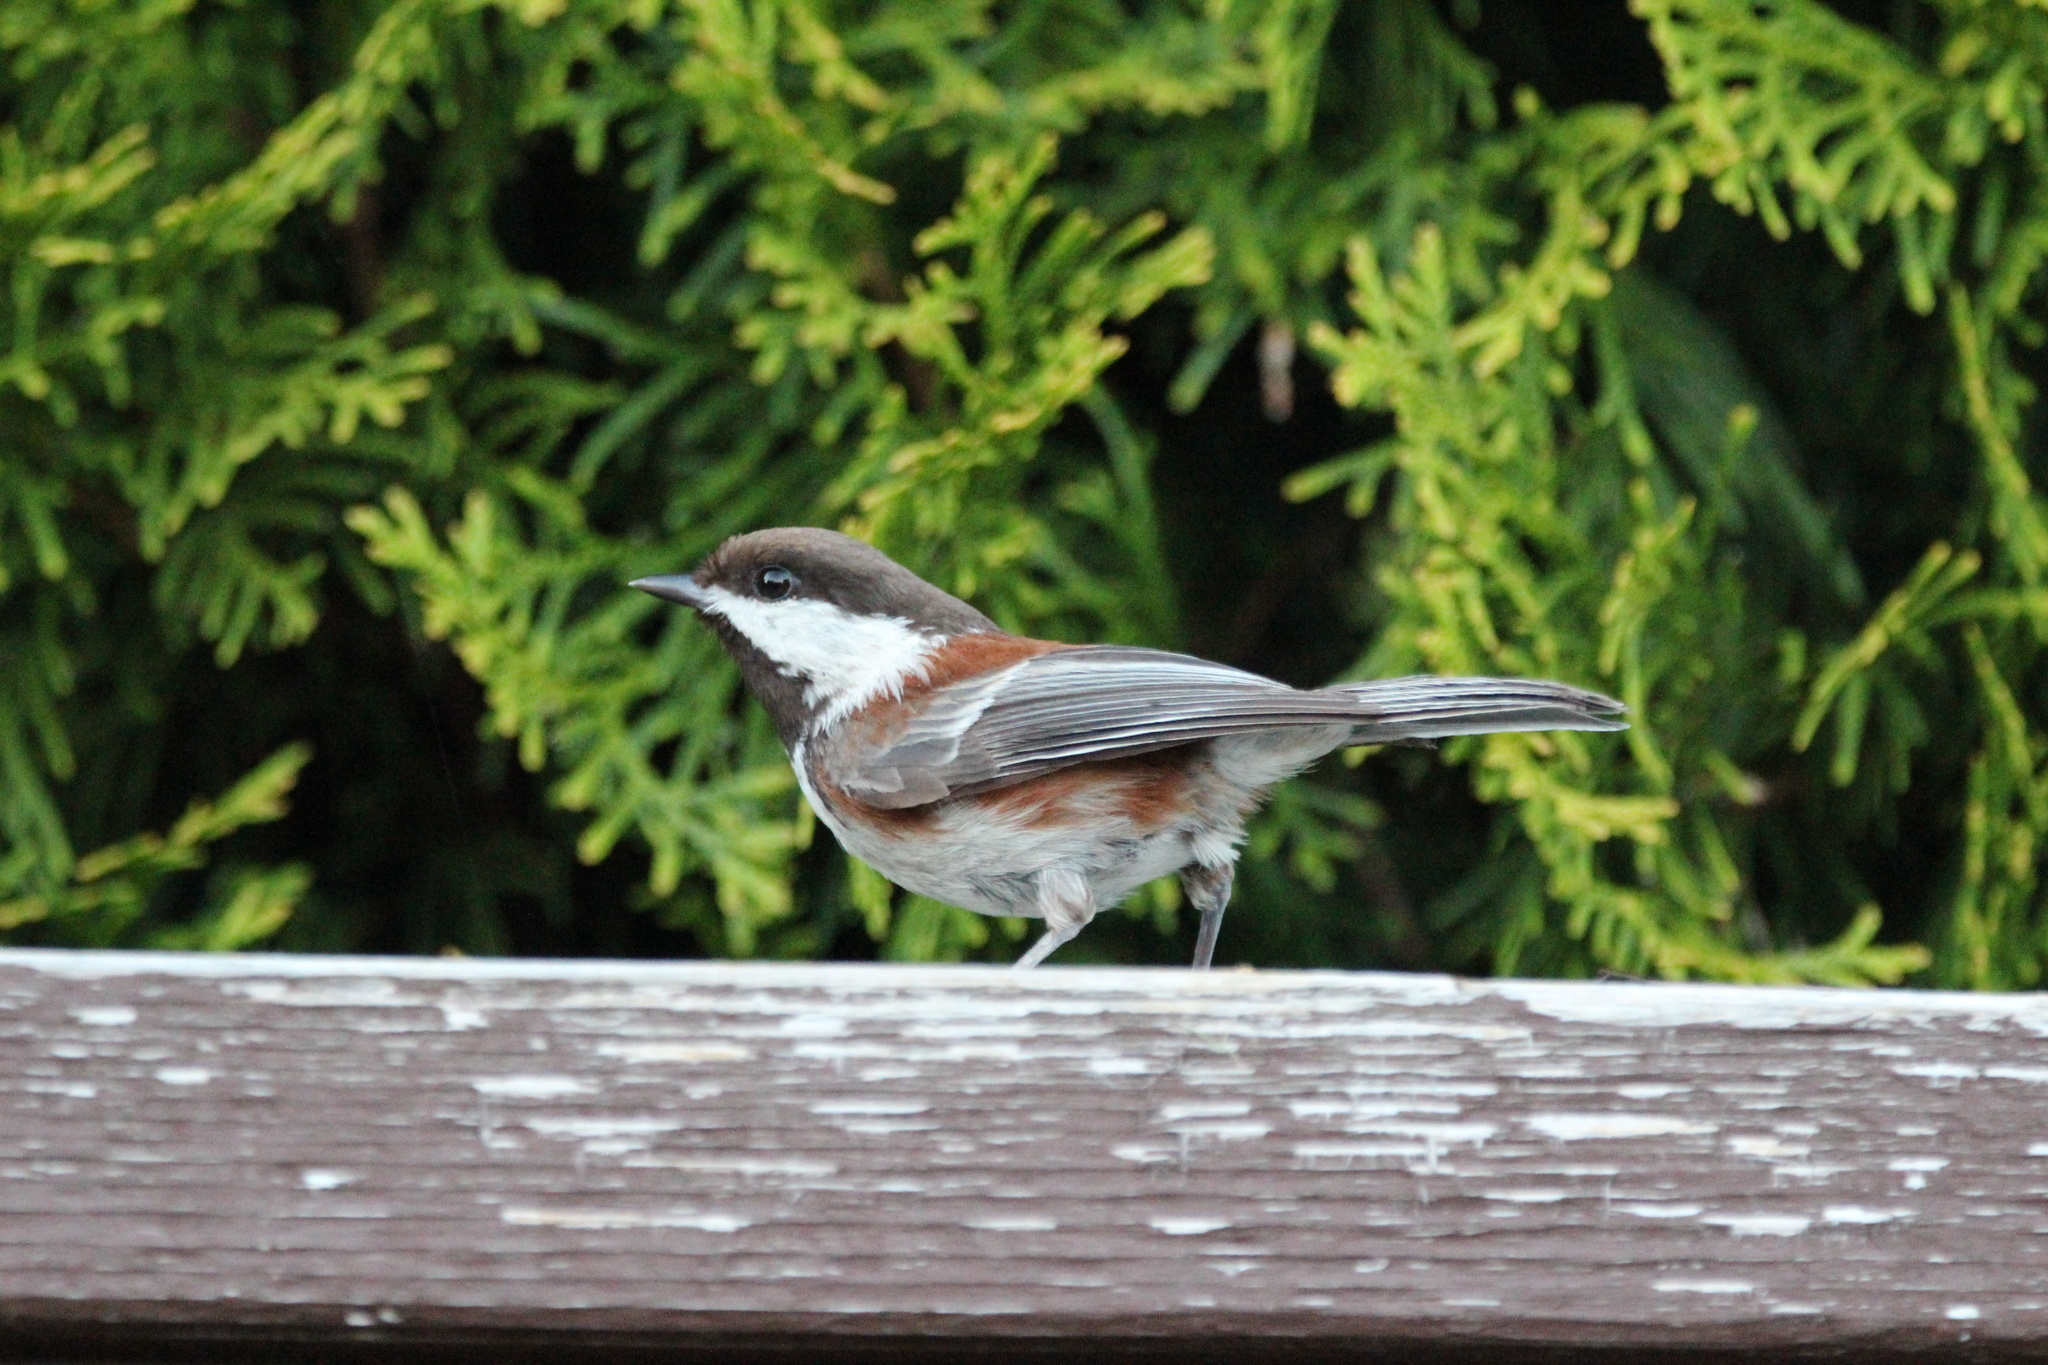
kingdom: Animalia
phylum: Chordata
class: Aves
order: Passeriformes
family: Paridae
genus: Poecile
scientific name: Poecile rufescens
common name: Chestnut-backed chickadee
